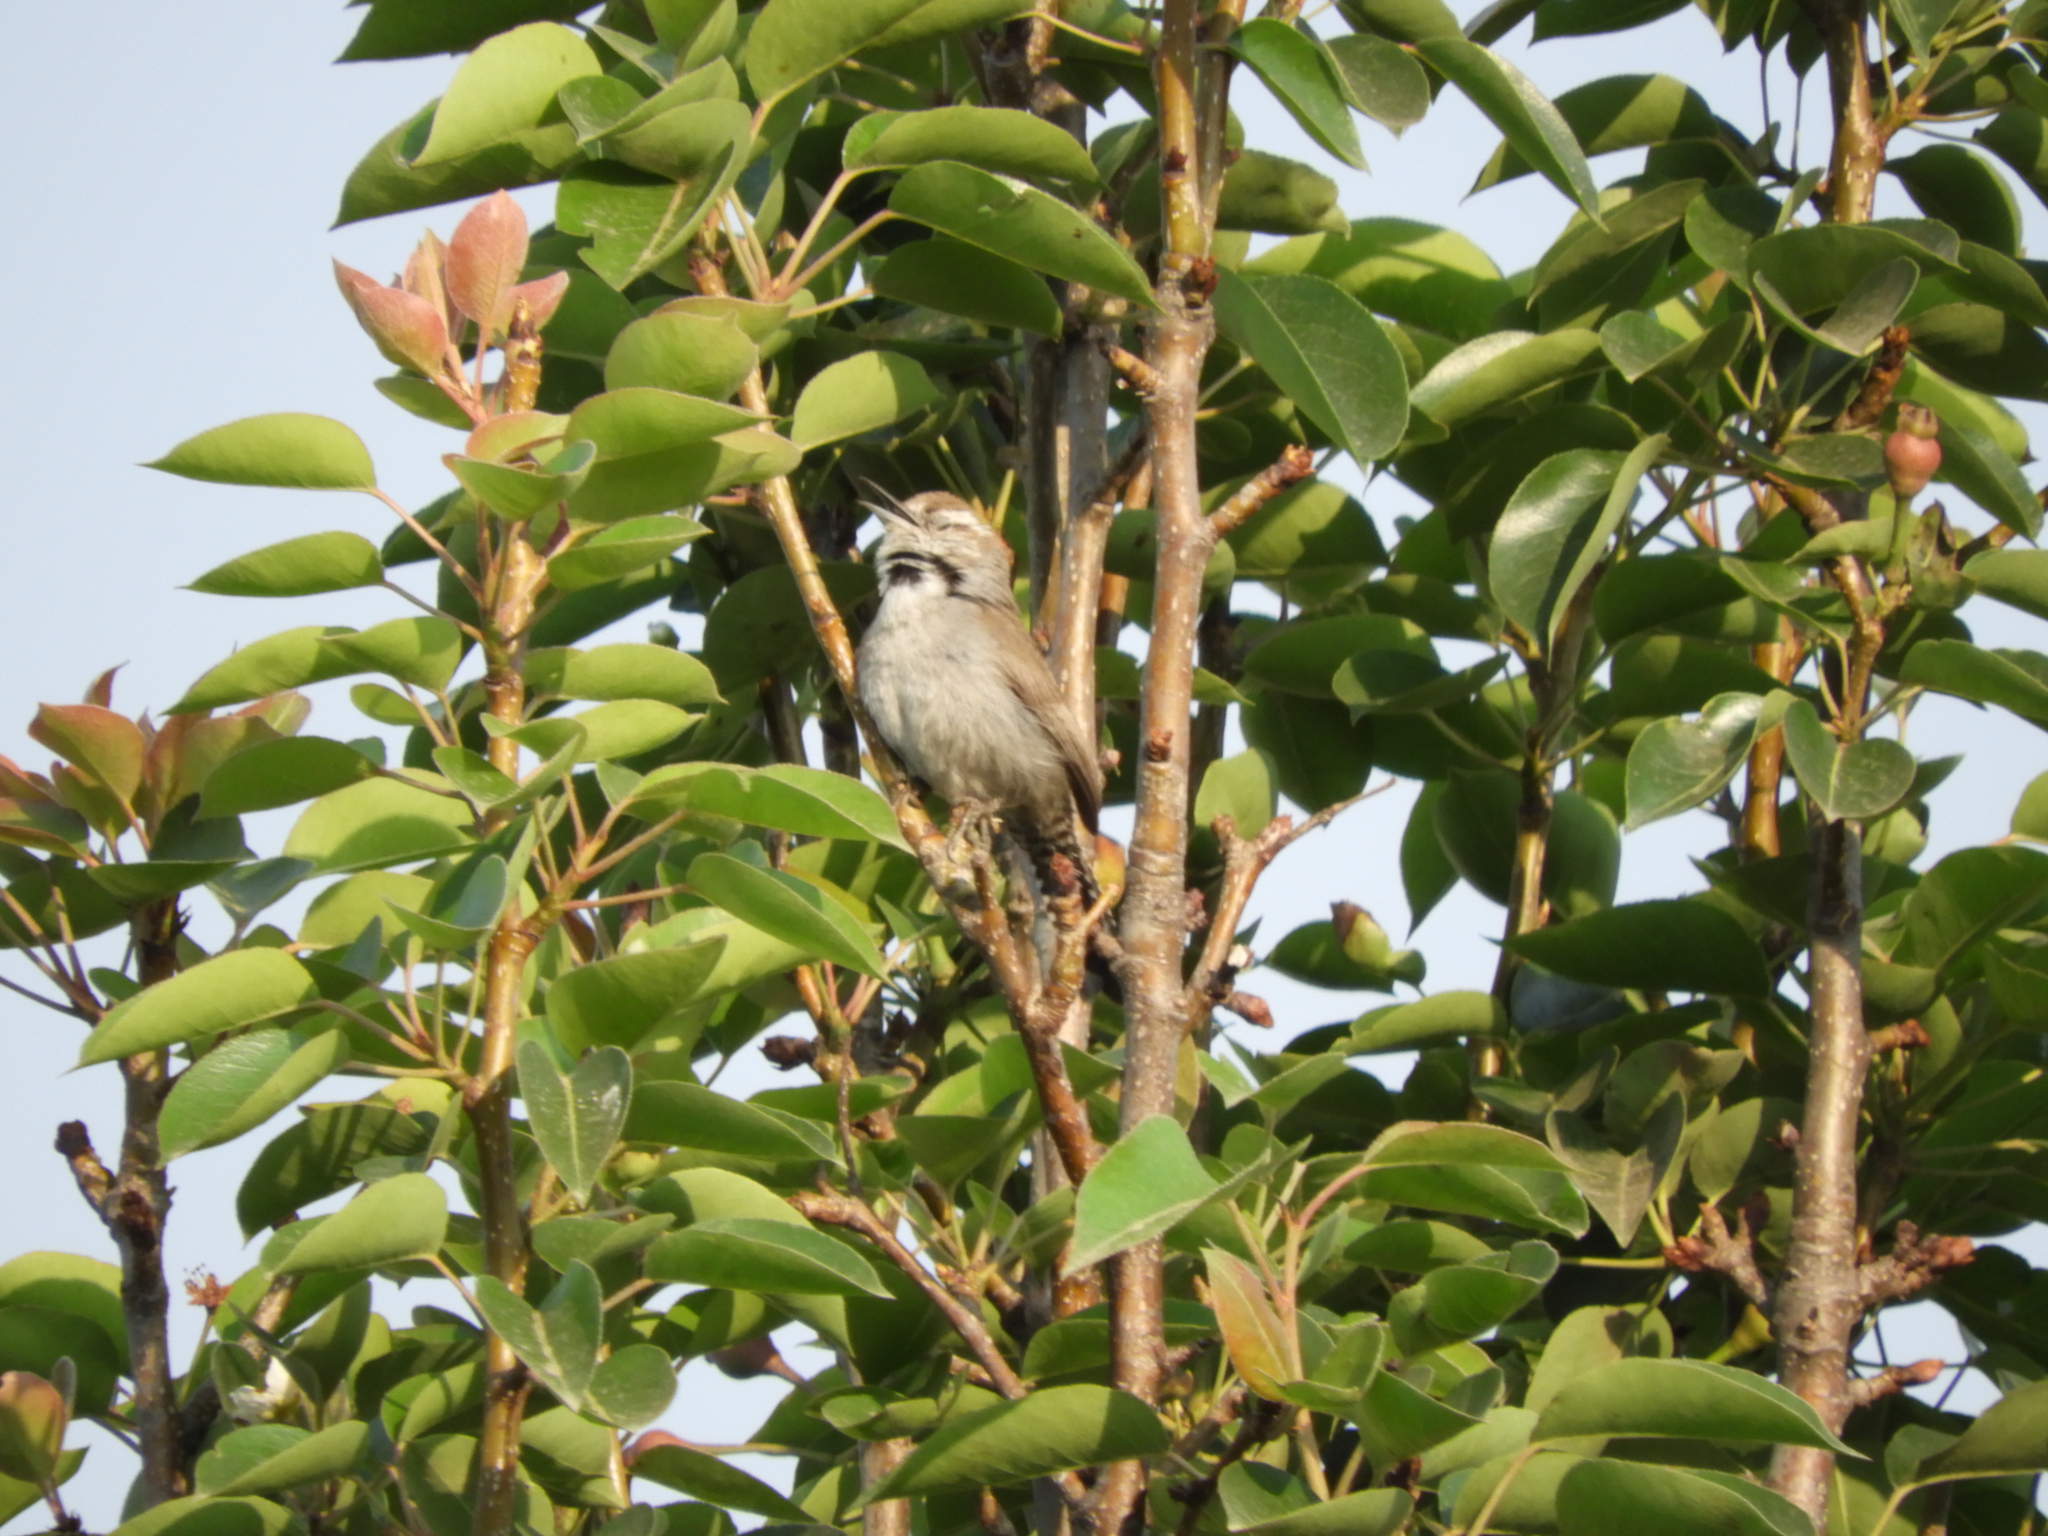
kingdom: Animalia
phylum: Chordata
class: Aves
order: Passeriformes
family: Troglodytidae
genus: Thryomanes
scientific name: Thryomanes bewickii
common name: Bewick's wren
